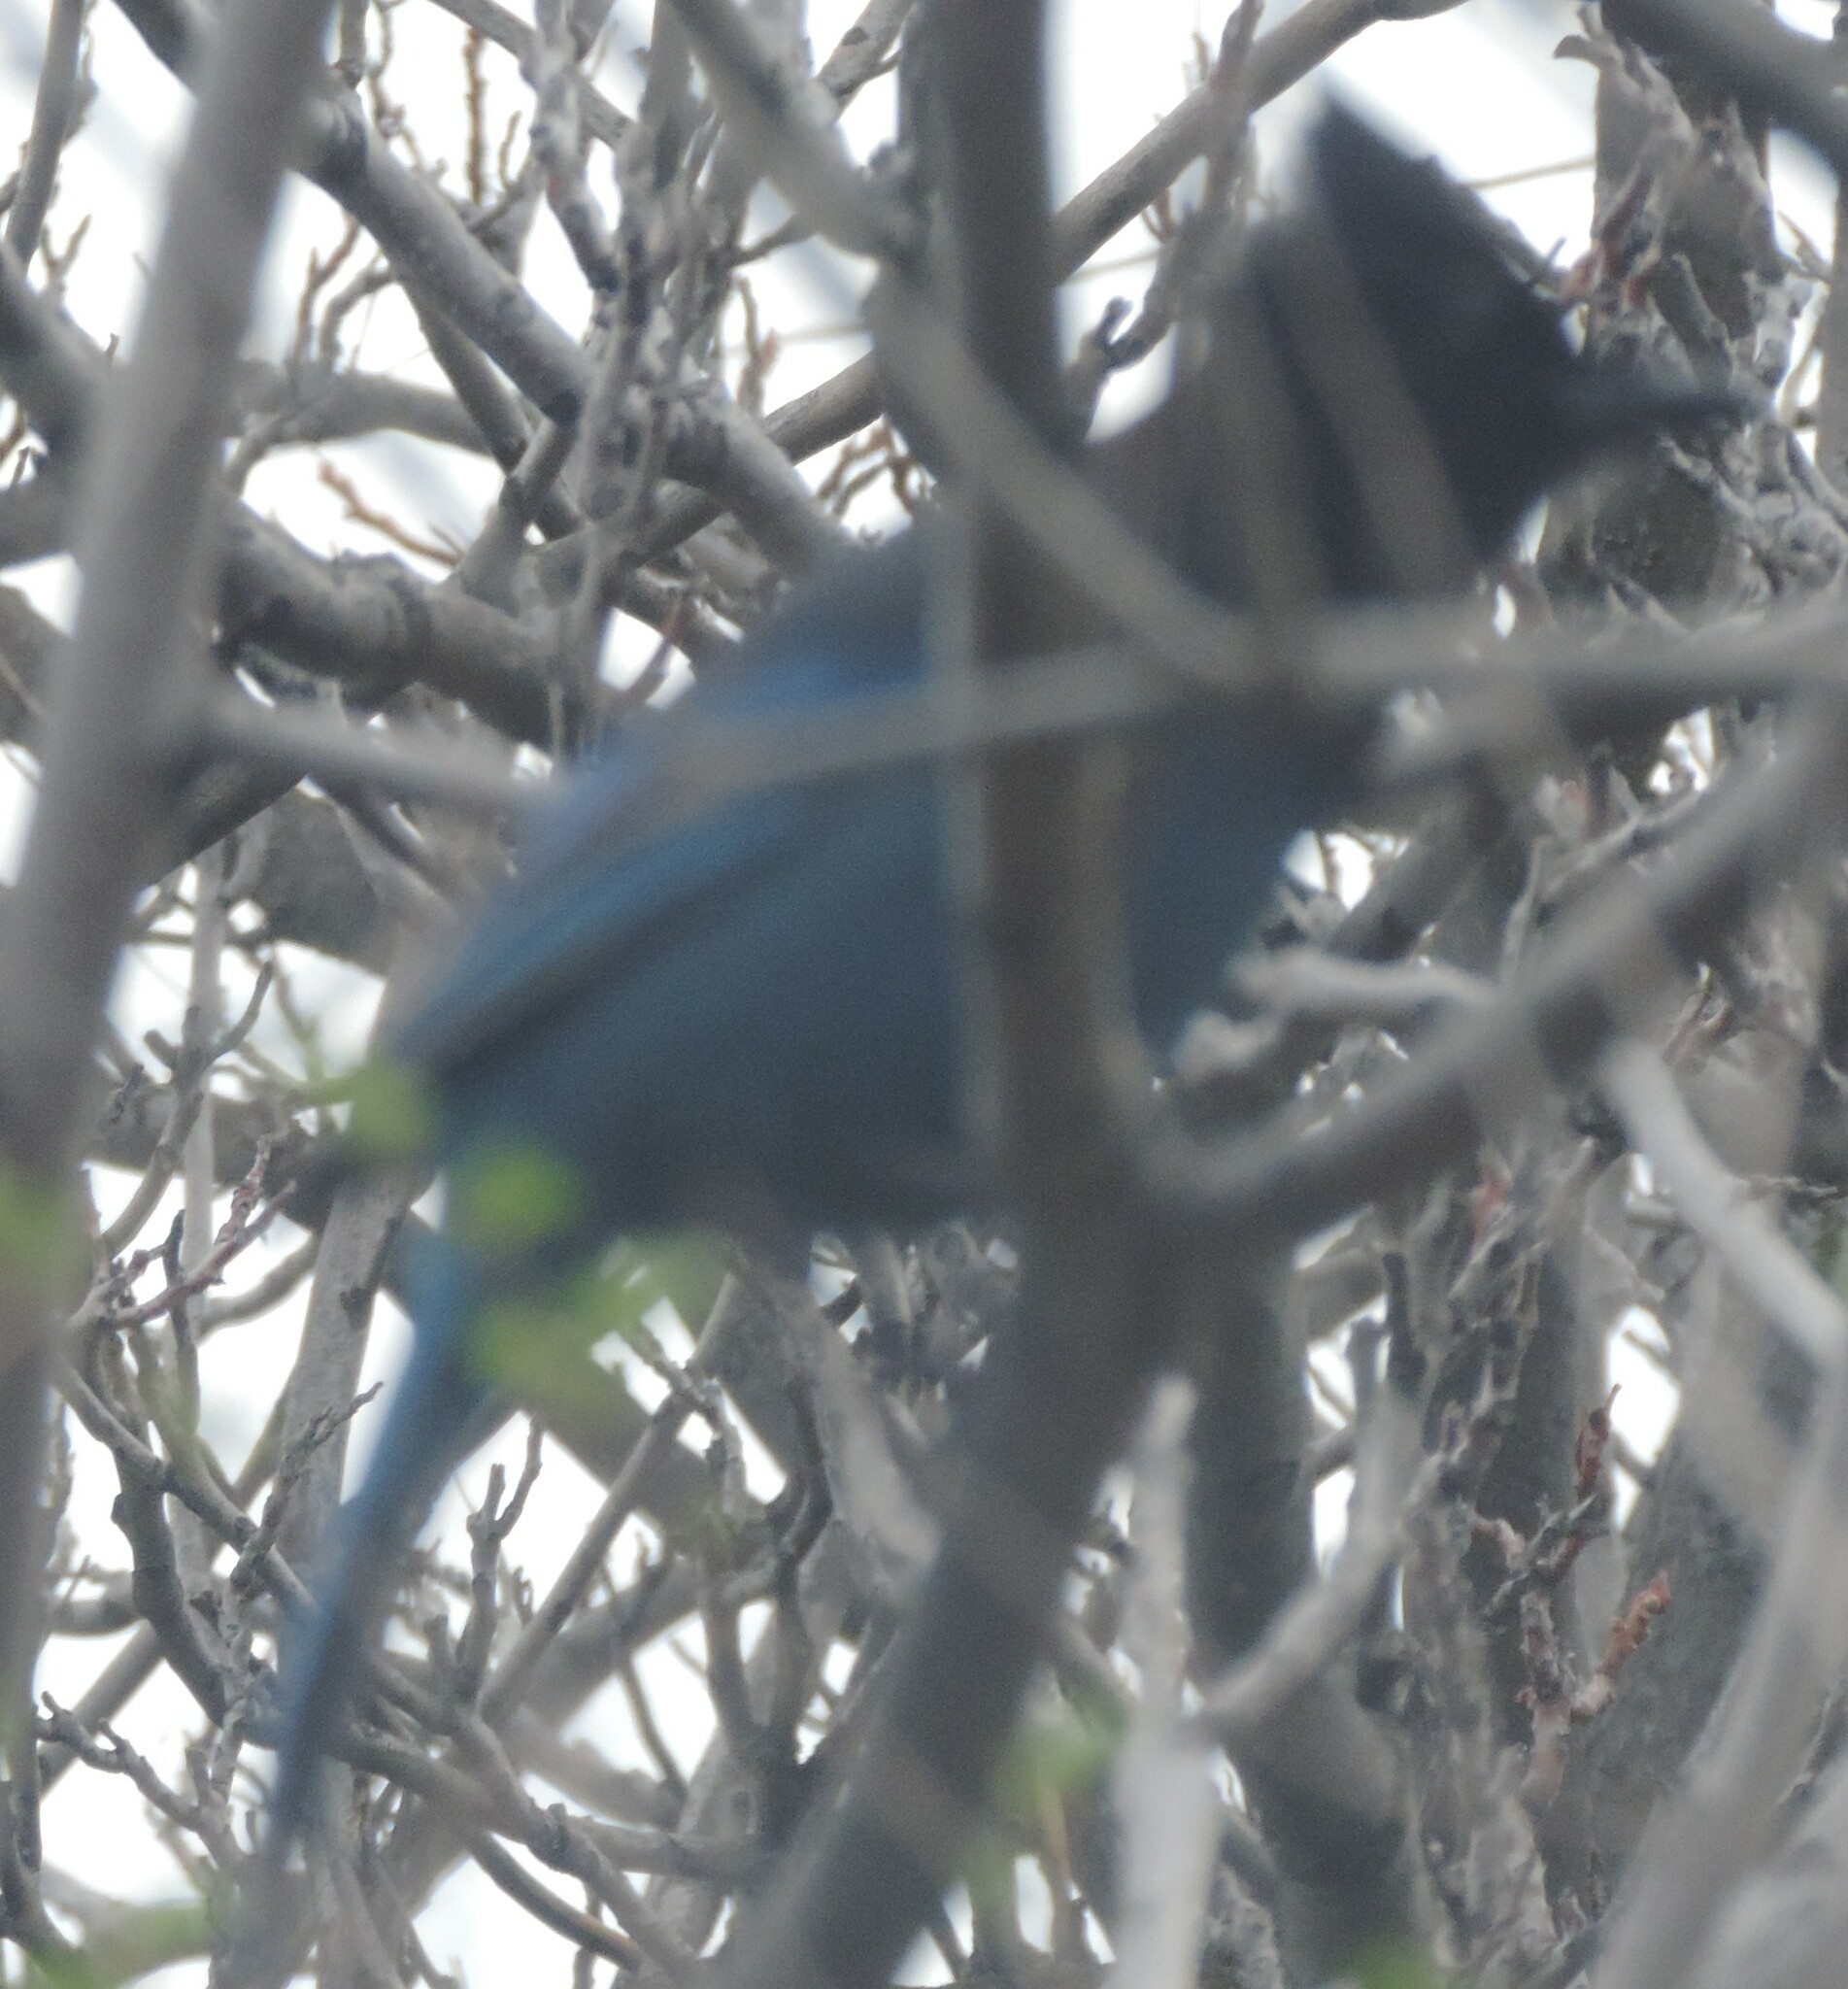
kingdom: Animalia
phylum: Chordata
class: Aves
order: Passeriformes
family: Corvidae
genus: Cyanocitta
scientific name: Cyanocitta stelleri
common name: Steller's jay
